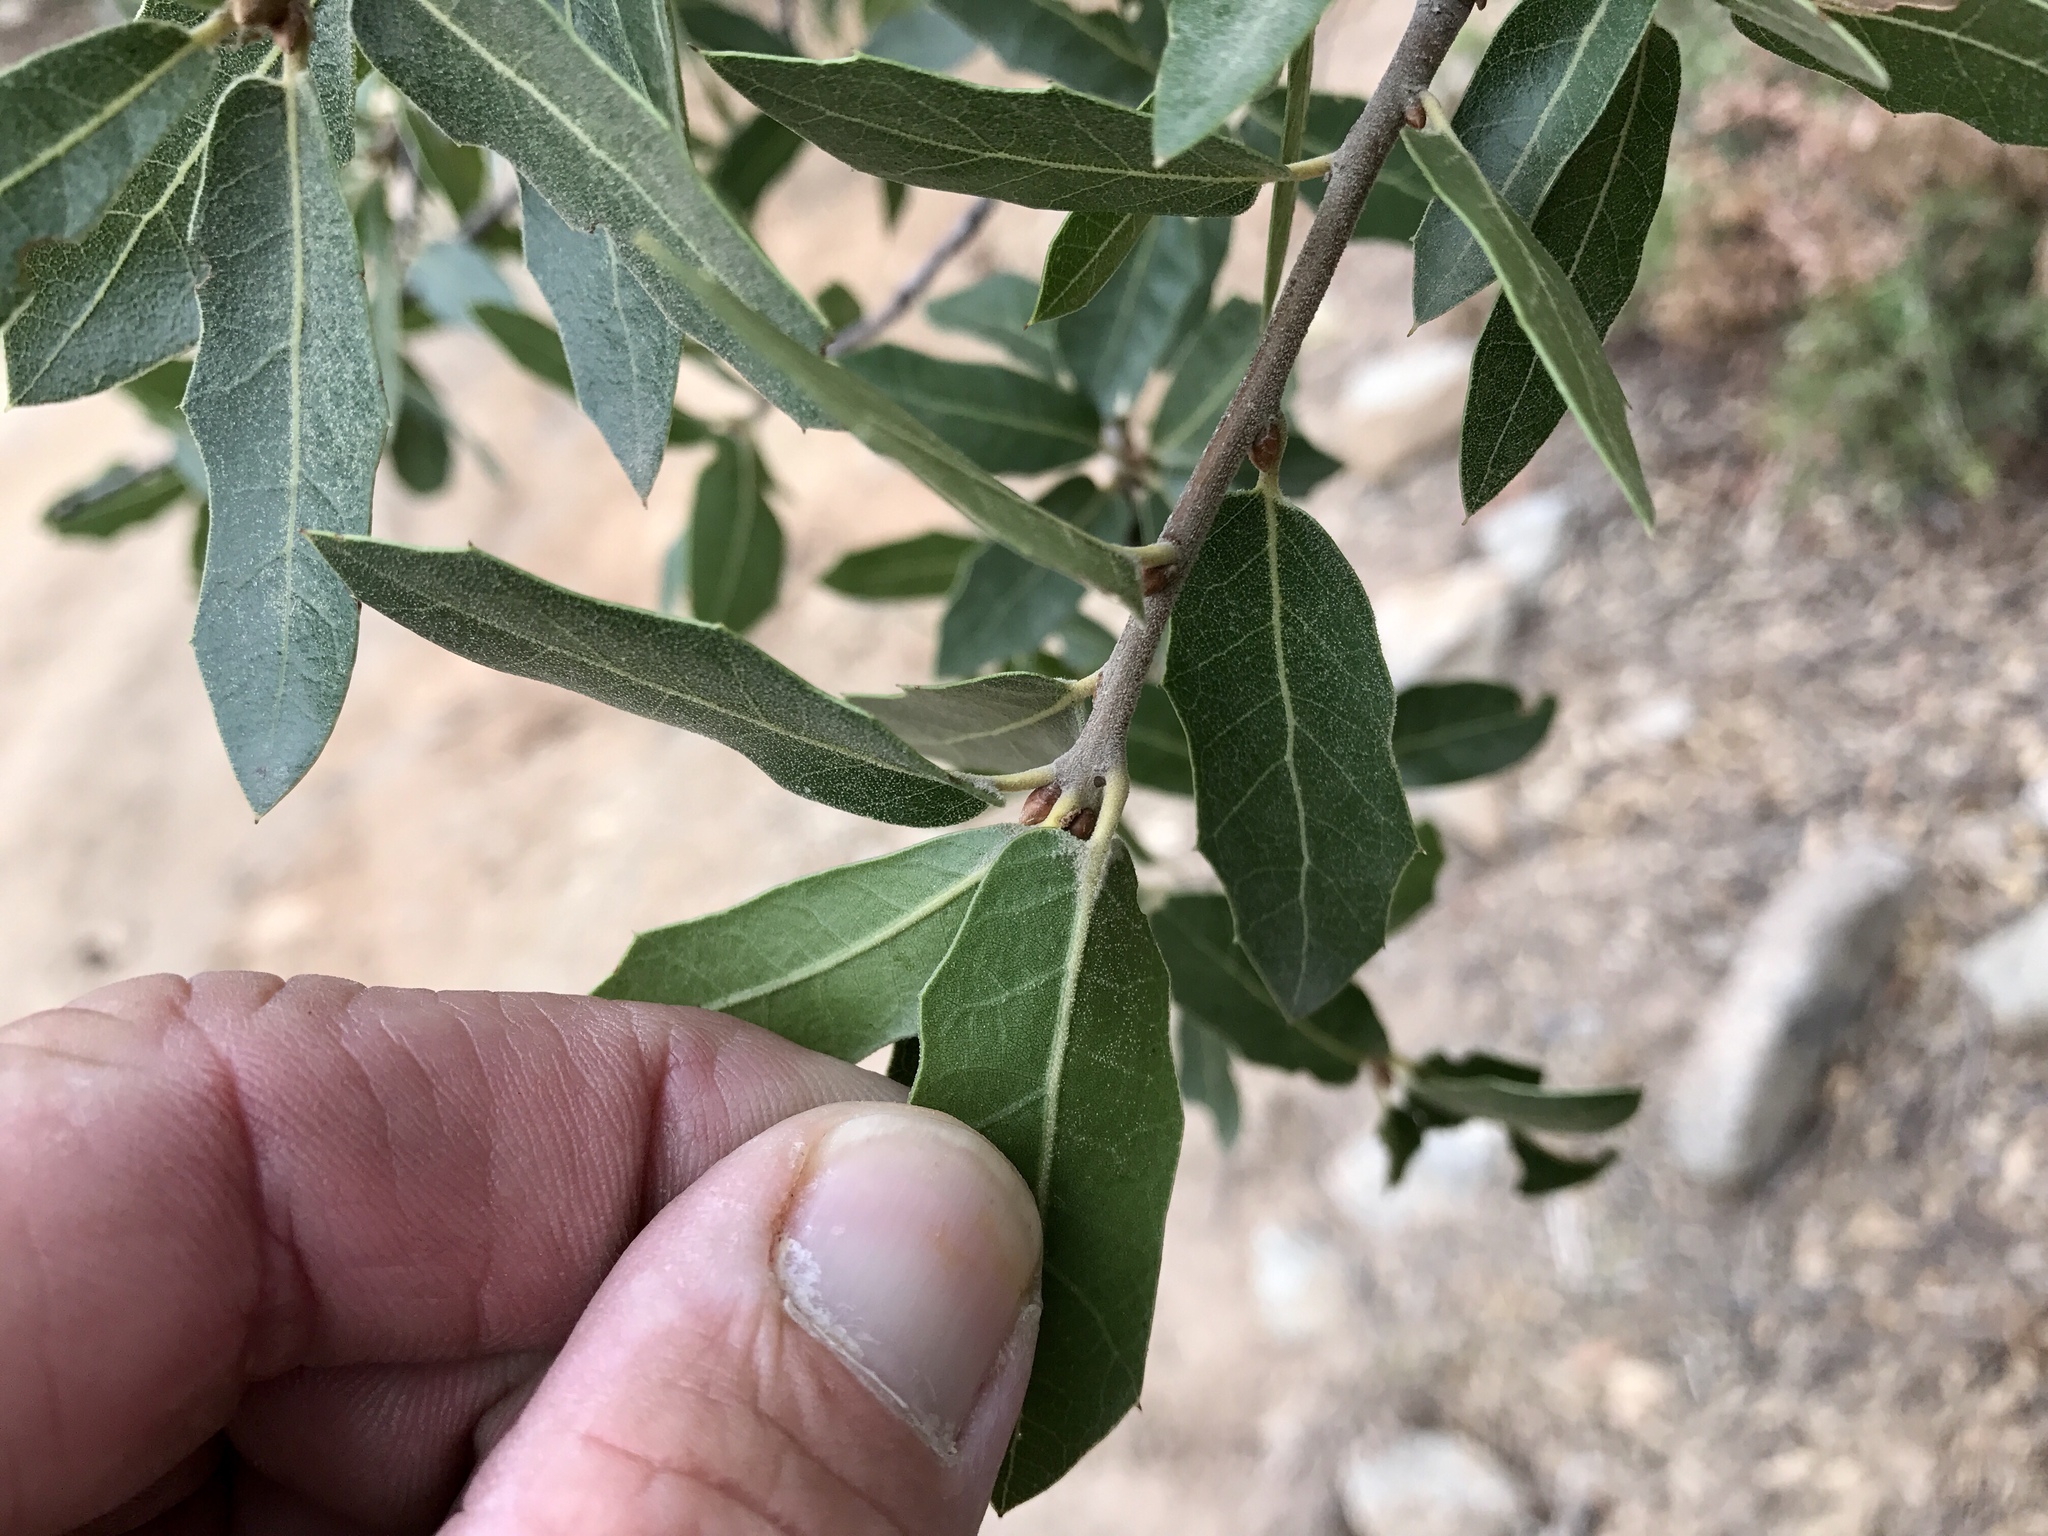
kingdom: Plantae
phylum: Tracheophyta
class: Magnoliopsida
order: Fagales
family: Fagaceae
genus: Quercus
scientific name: Quercus emoryi
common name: Emory oak
